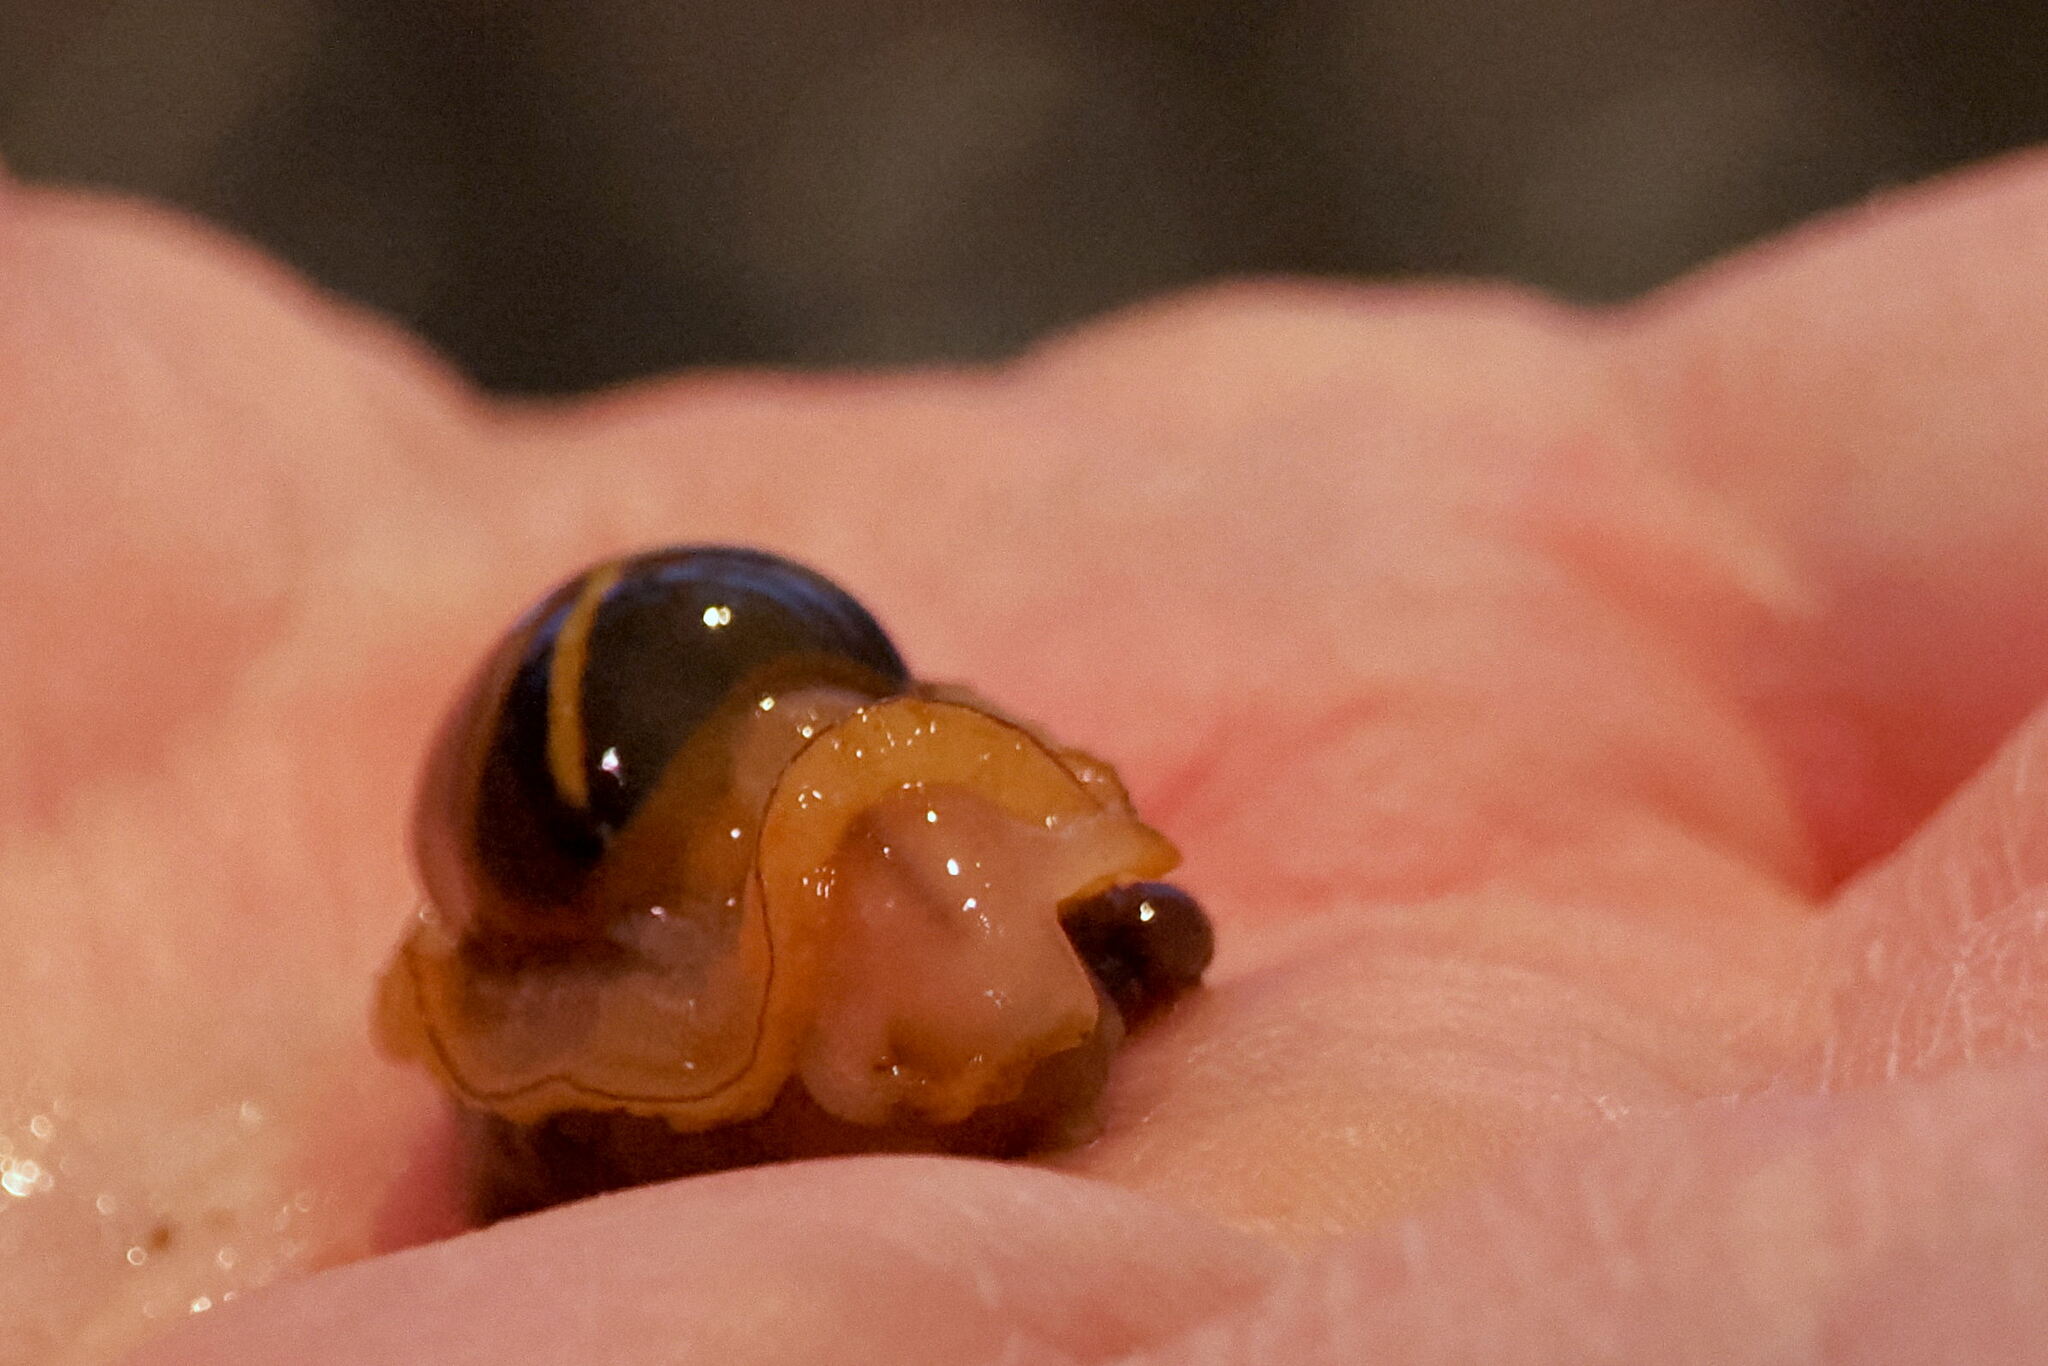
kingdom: Animalia
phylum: Mollusca
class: Gastropoda
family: Nacellidae
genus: Nacella
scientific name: Nacella concinna
